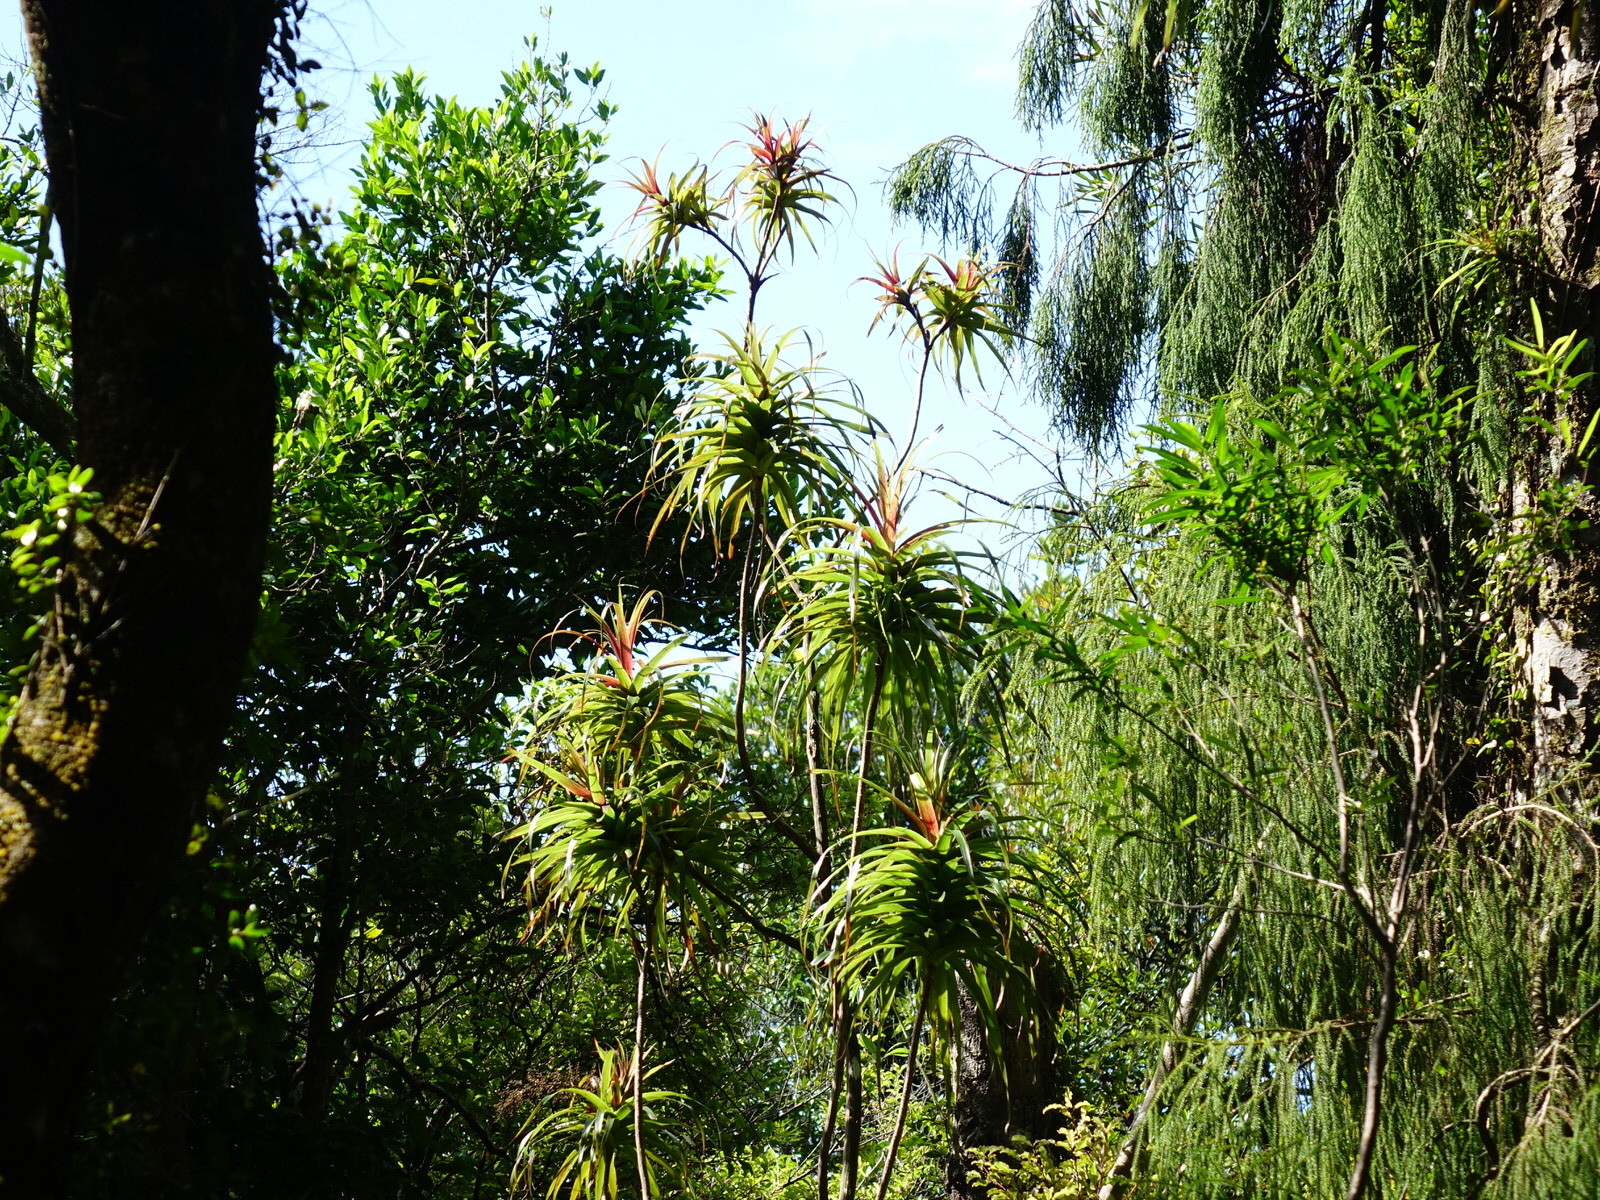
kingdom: Plantae
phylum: Tracheophyta
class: Magnoliopsida
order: Ericales
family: Ericaceae
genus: Dracophyllum
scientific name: Dracophyllum latifolium
